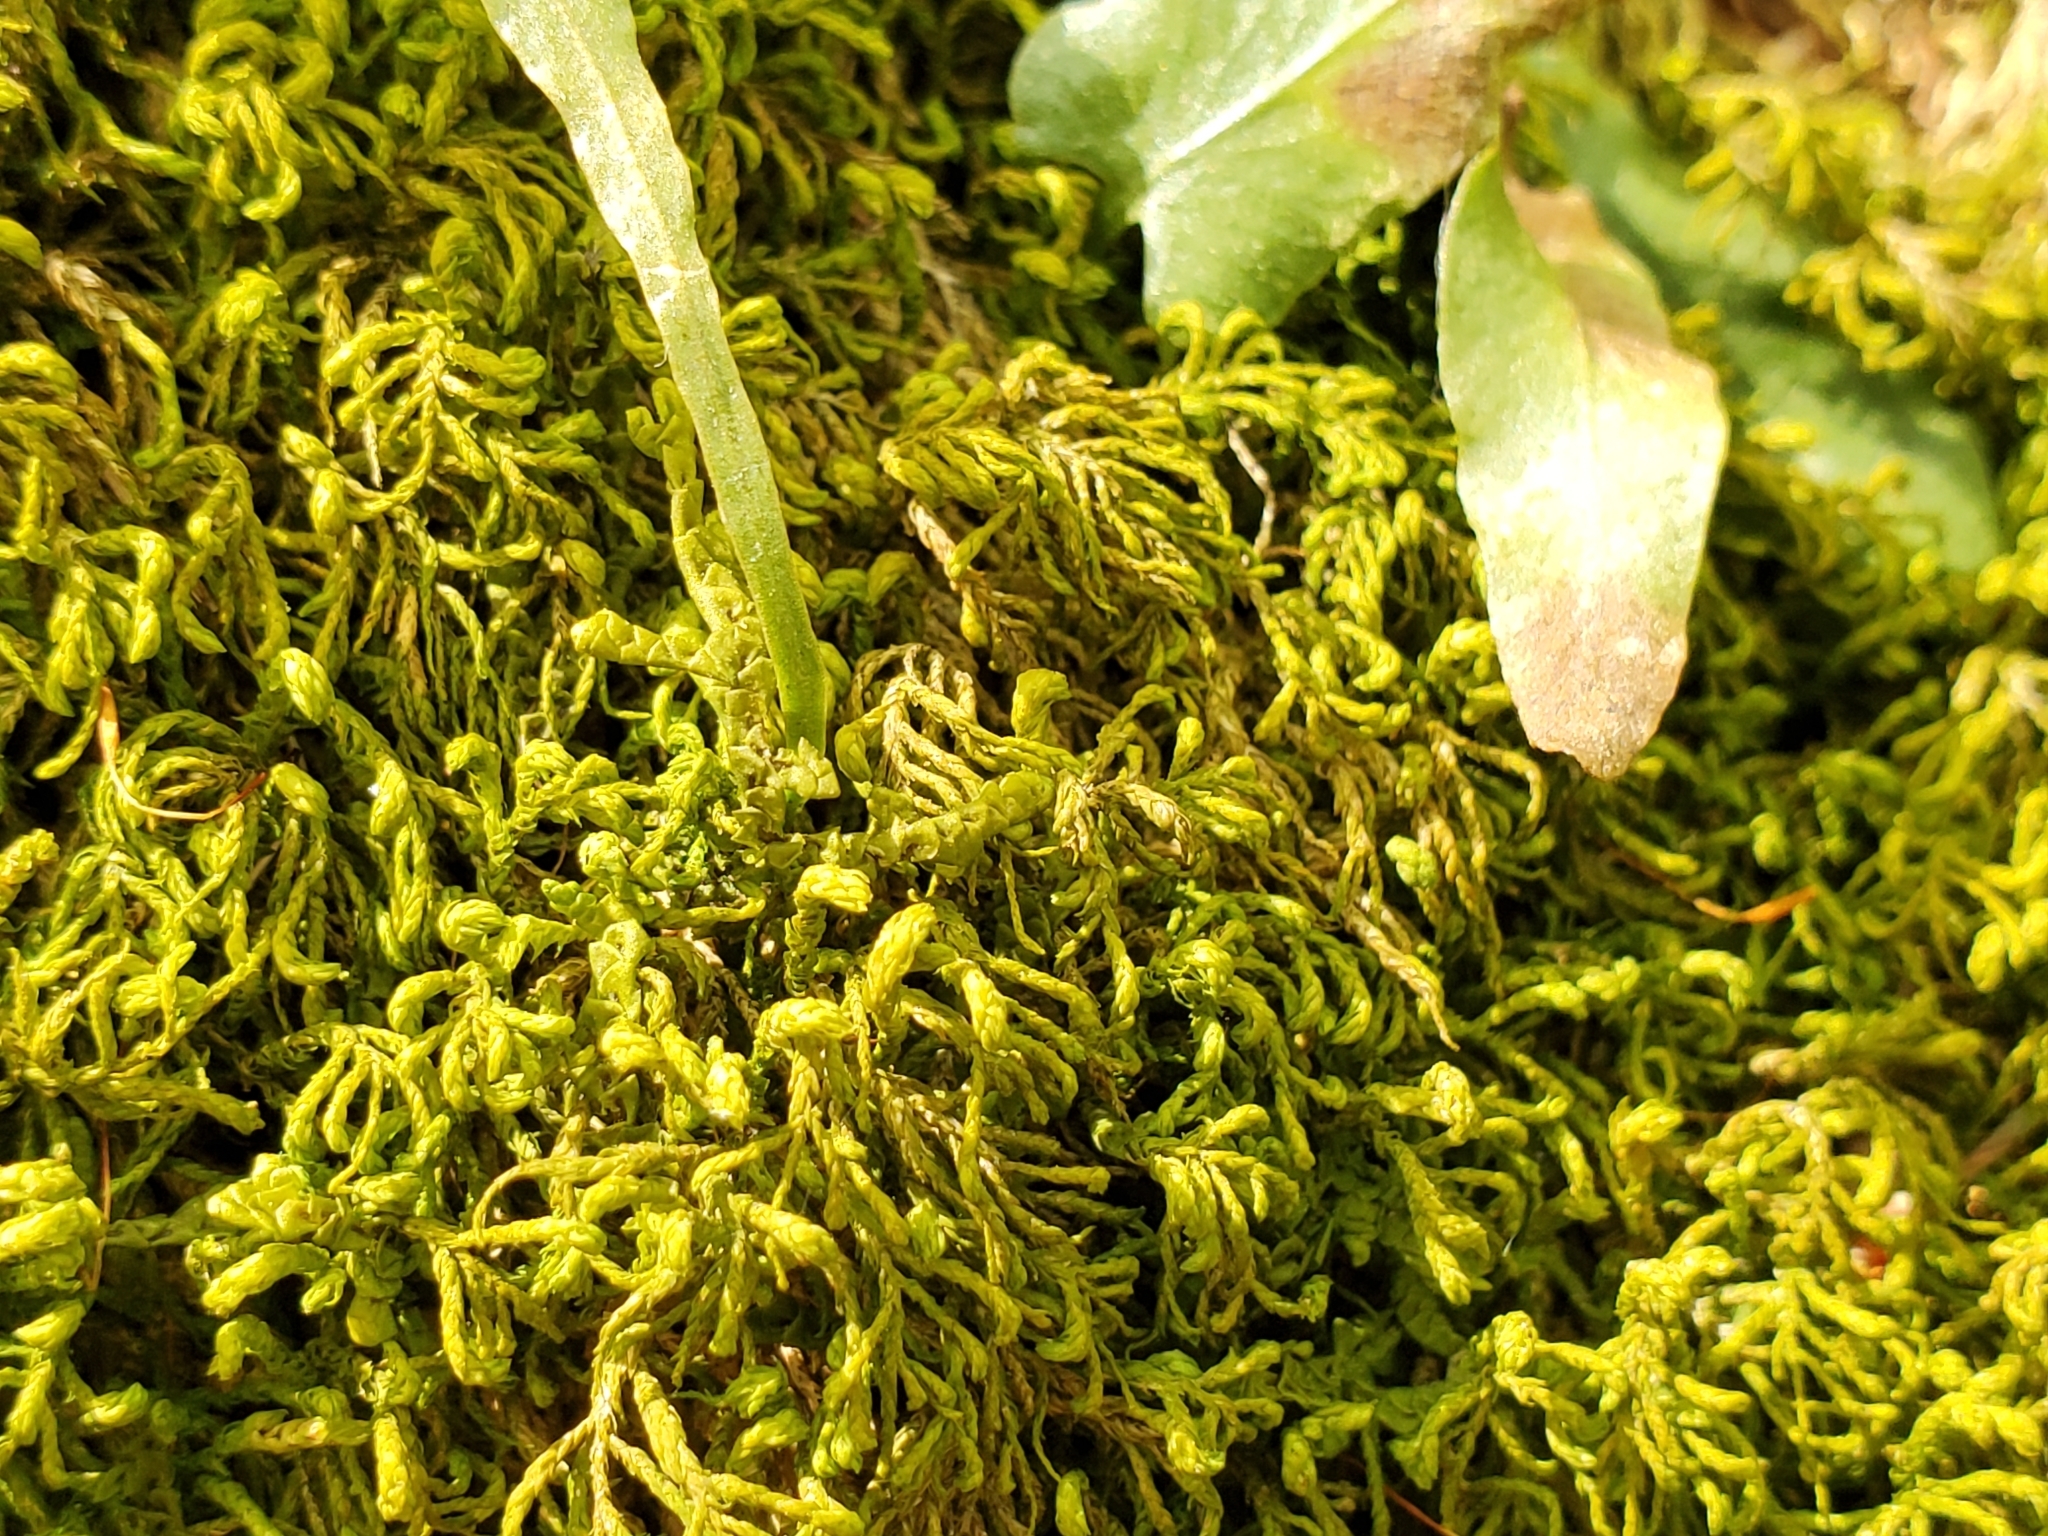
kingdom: Plantae
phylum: Tracheophyta
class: Polypodiopsida
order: Polypodiales
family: Aspleniaceae
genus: Asplenium
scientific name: Asplenium rhizophyllum
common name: Walking fern
